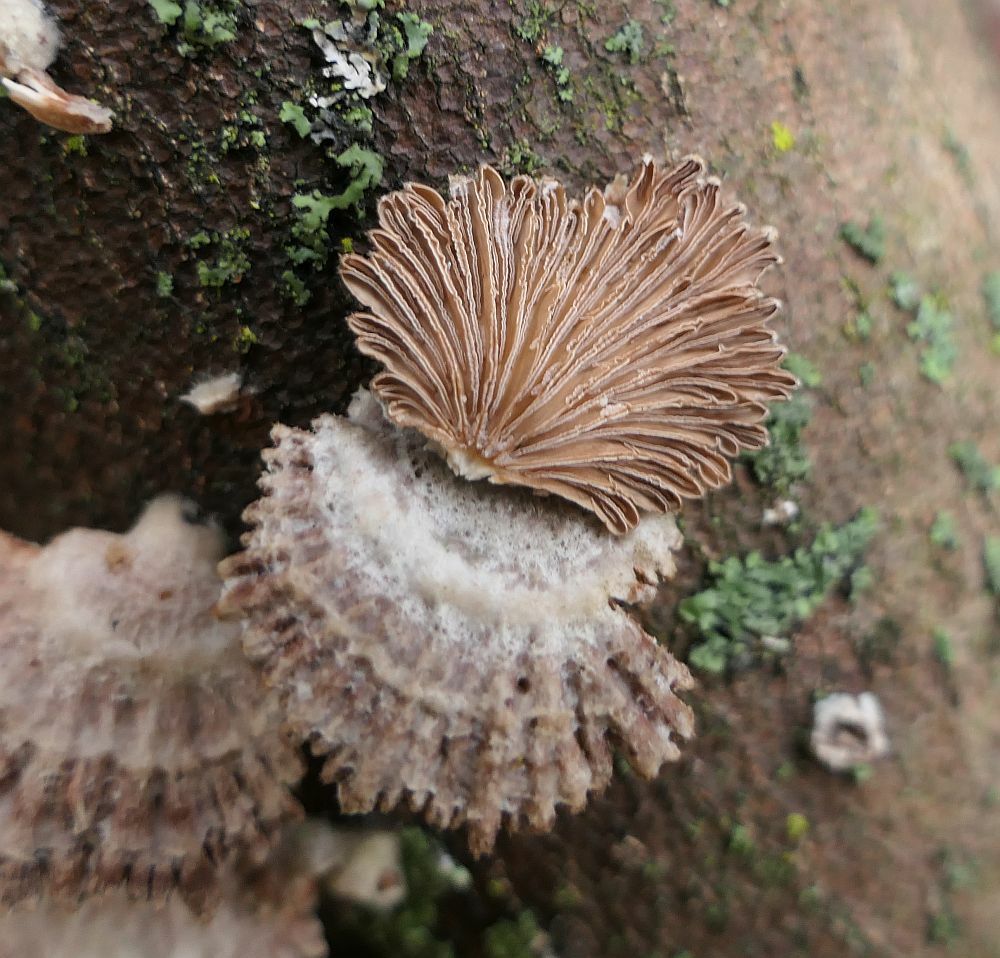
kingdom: Fungi
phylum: Basidiomycota
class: Agaricomycetes
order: Agaricales
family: Schizophyllaceae
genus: Schizophyllum
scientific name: Schizophyllum commune
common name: Common porecrust
